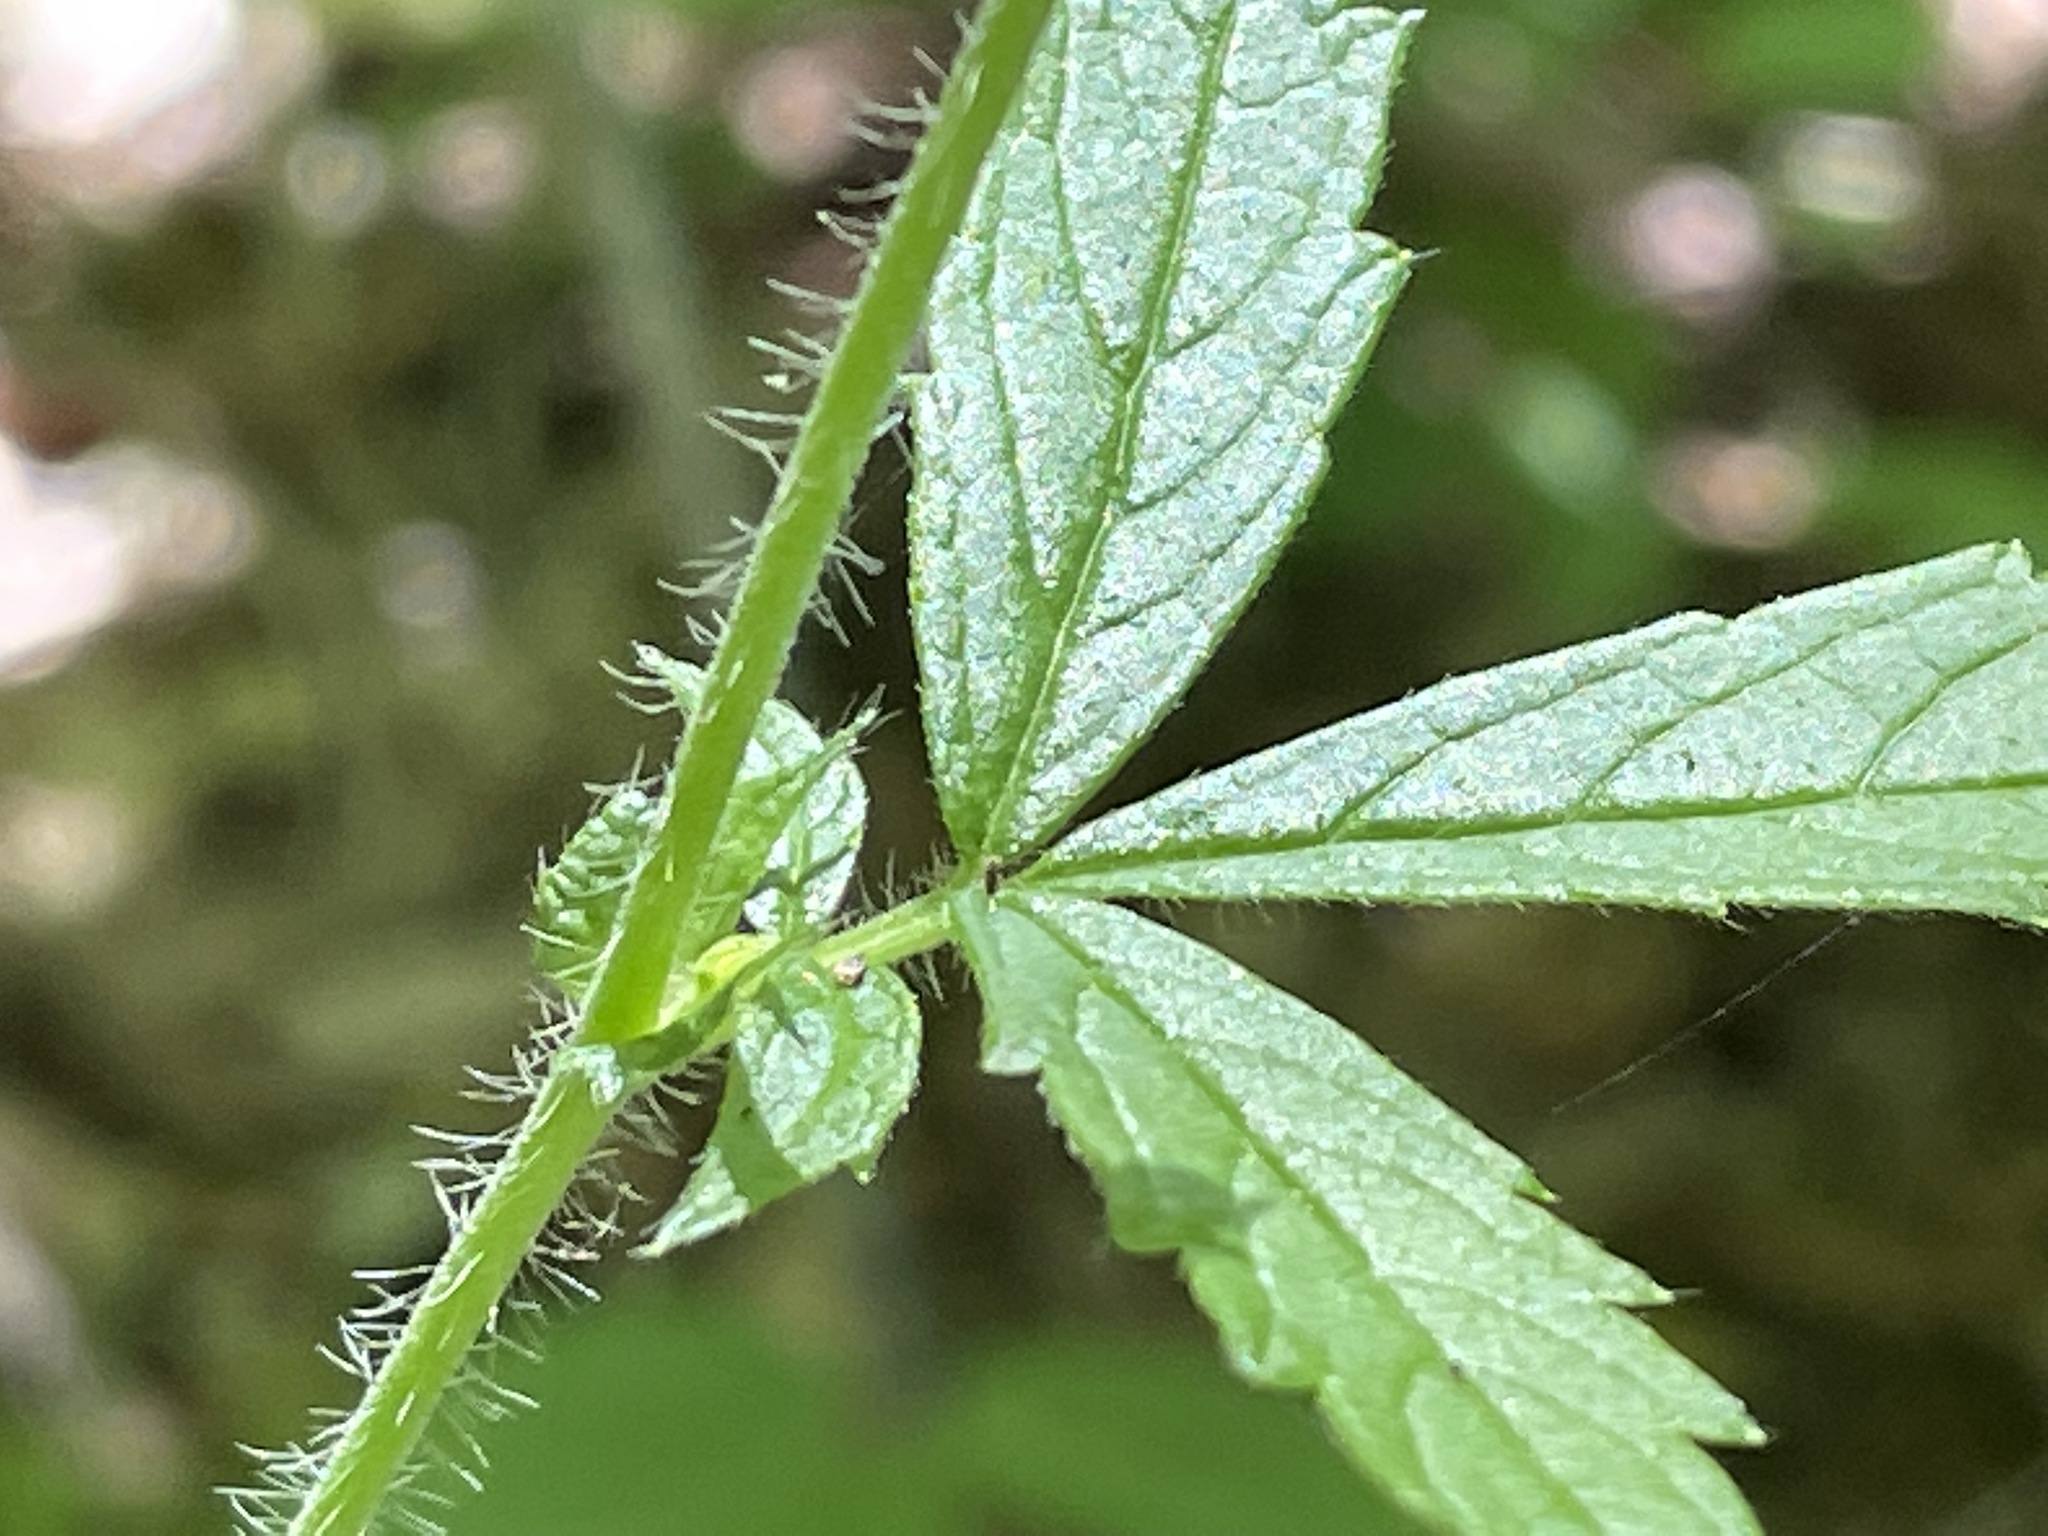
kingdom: Plantae
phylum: Tracheophyta
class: Magnoliopsida
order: Rosales
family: Rosaceae
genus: Agrimonia
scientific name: Agrimonia gryposepala
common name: Common agrimony
